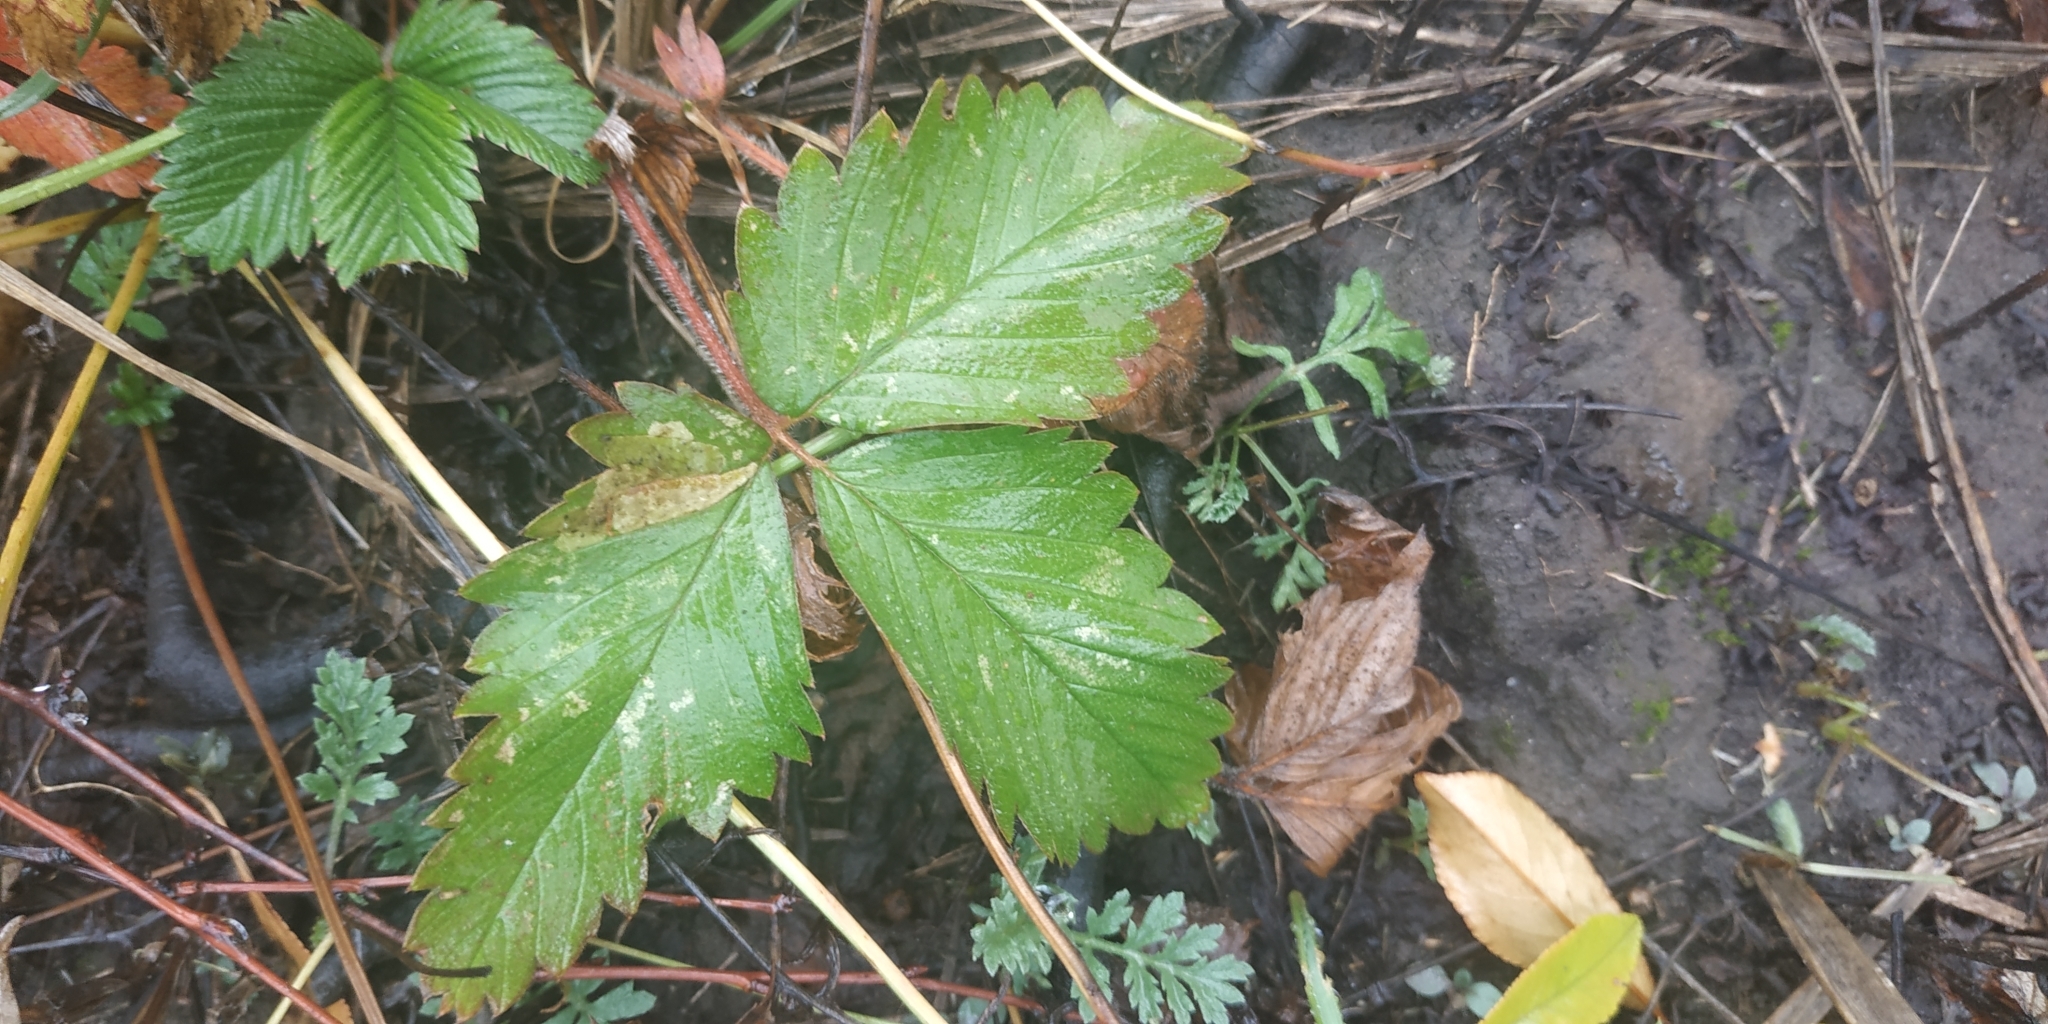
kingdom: Plantae
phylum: Tracheophyta
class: Magnoliopsida
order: Rosales
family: Rosaceae
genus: Fragaria
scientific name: Fragaria viridis
